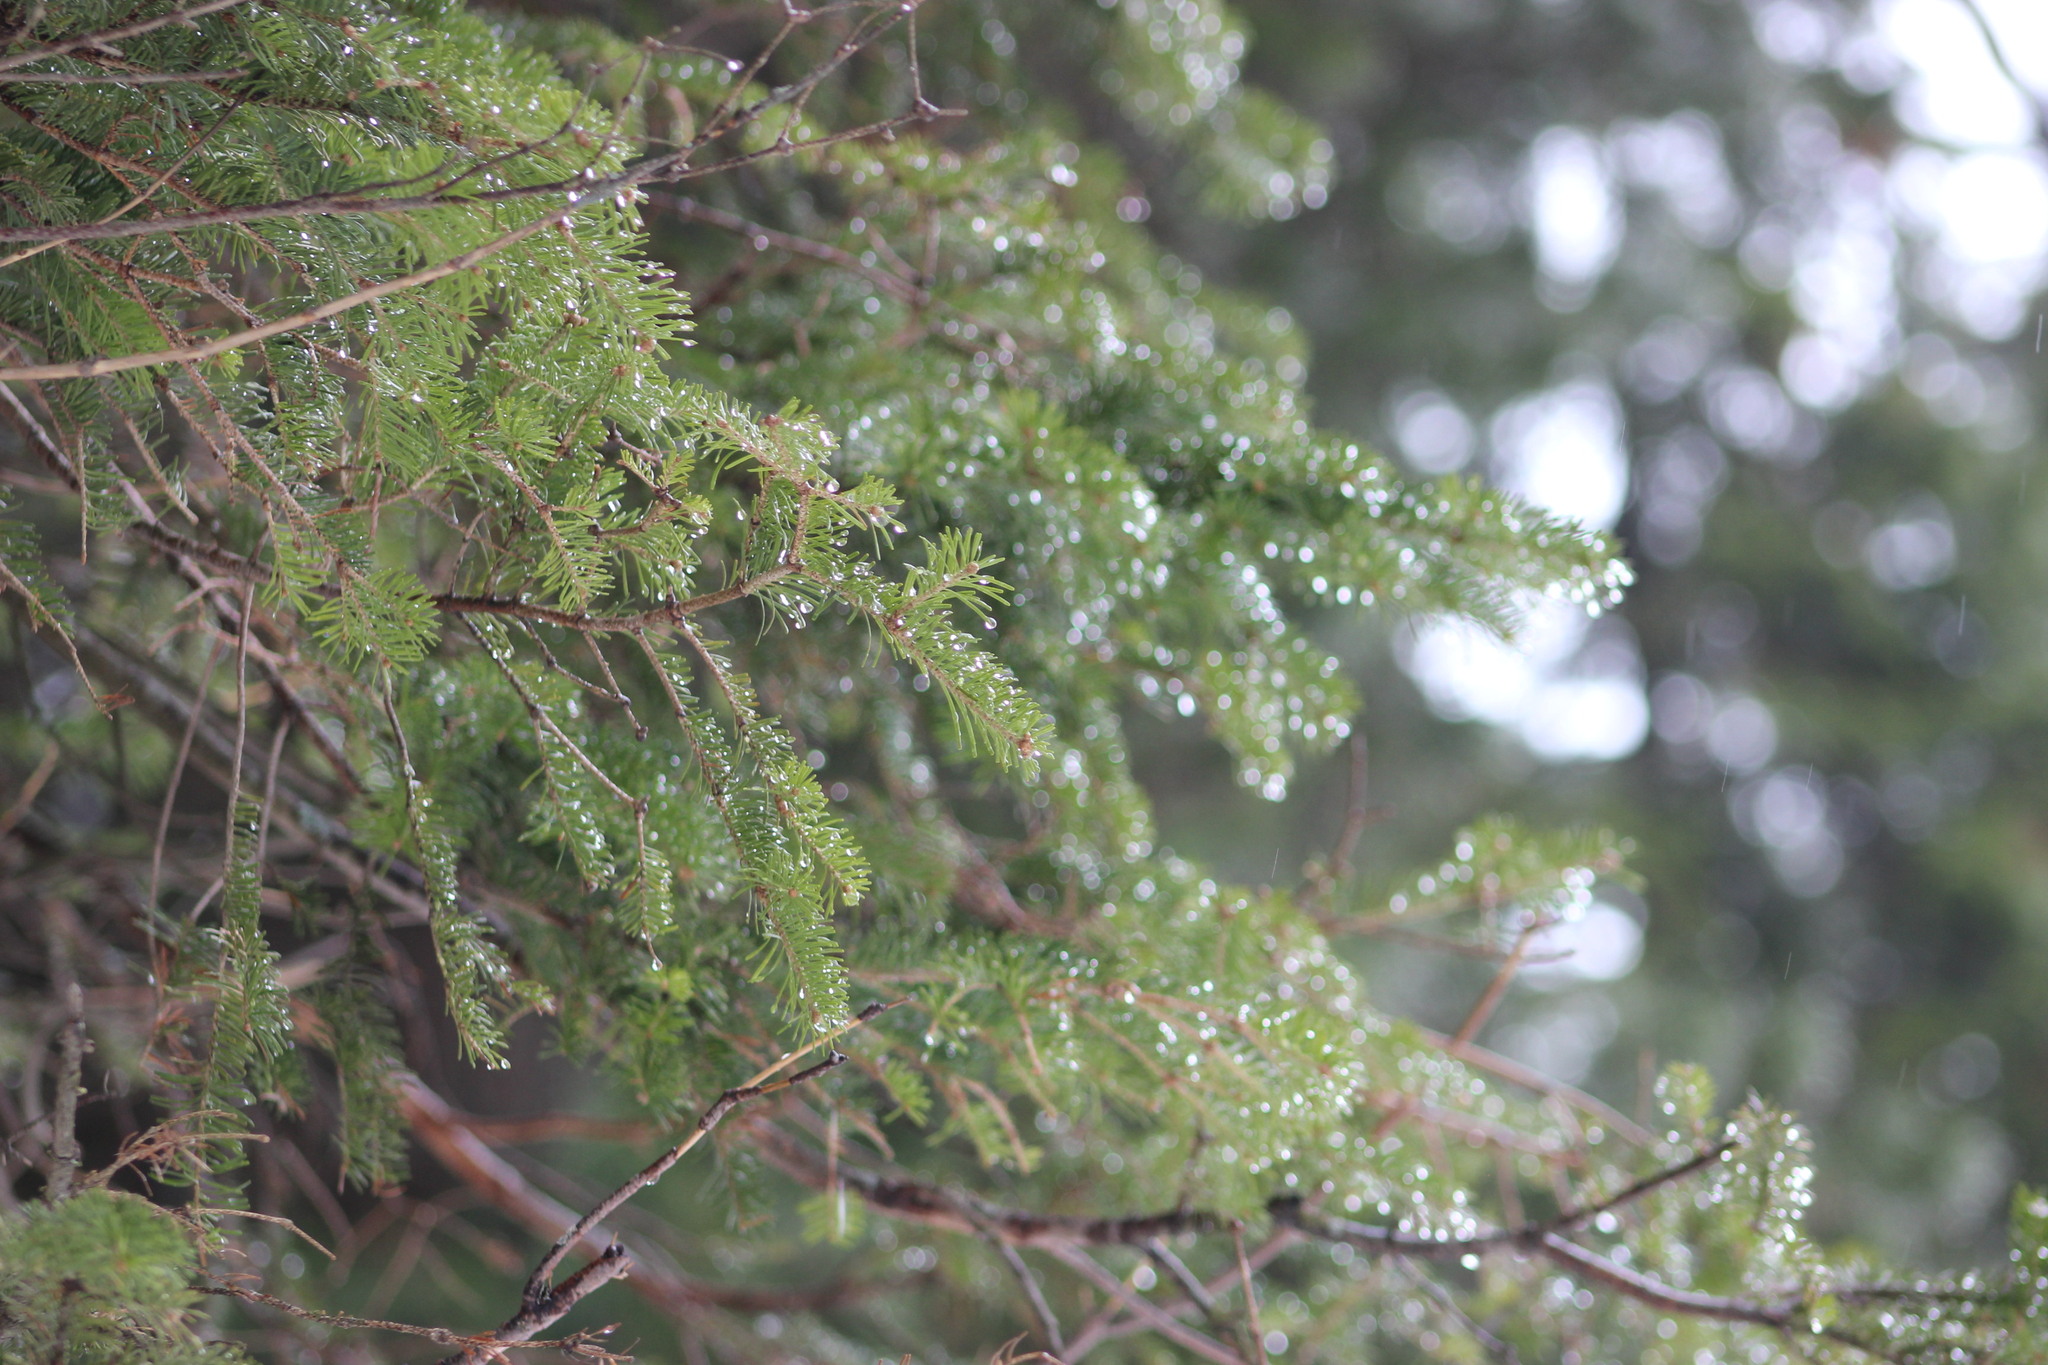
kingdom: Plantae
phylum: Tracheophyta
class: Pinopsida
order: Pinales
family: Pinaceae
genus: Abies
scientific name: Abies sibirica
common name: Siberian fir
